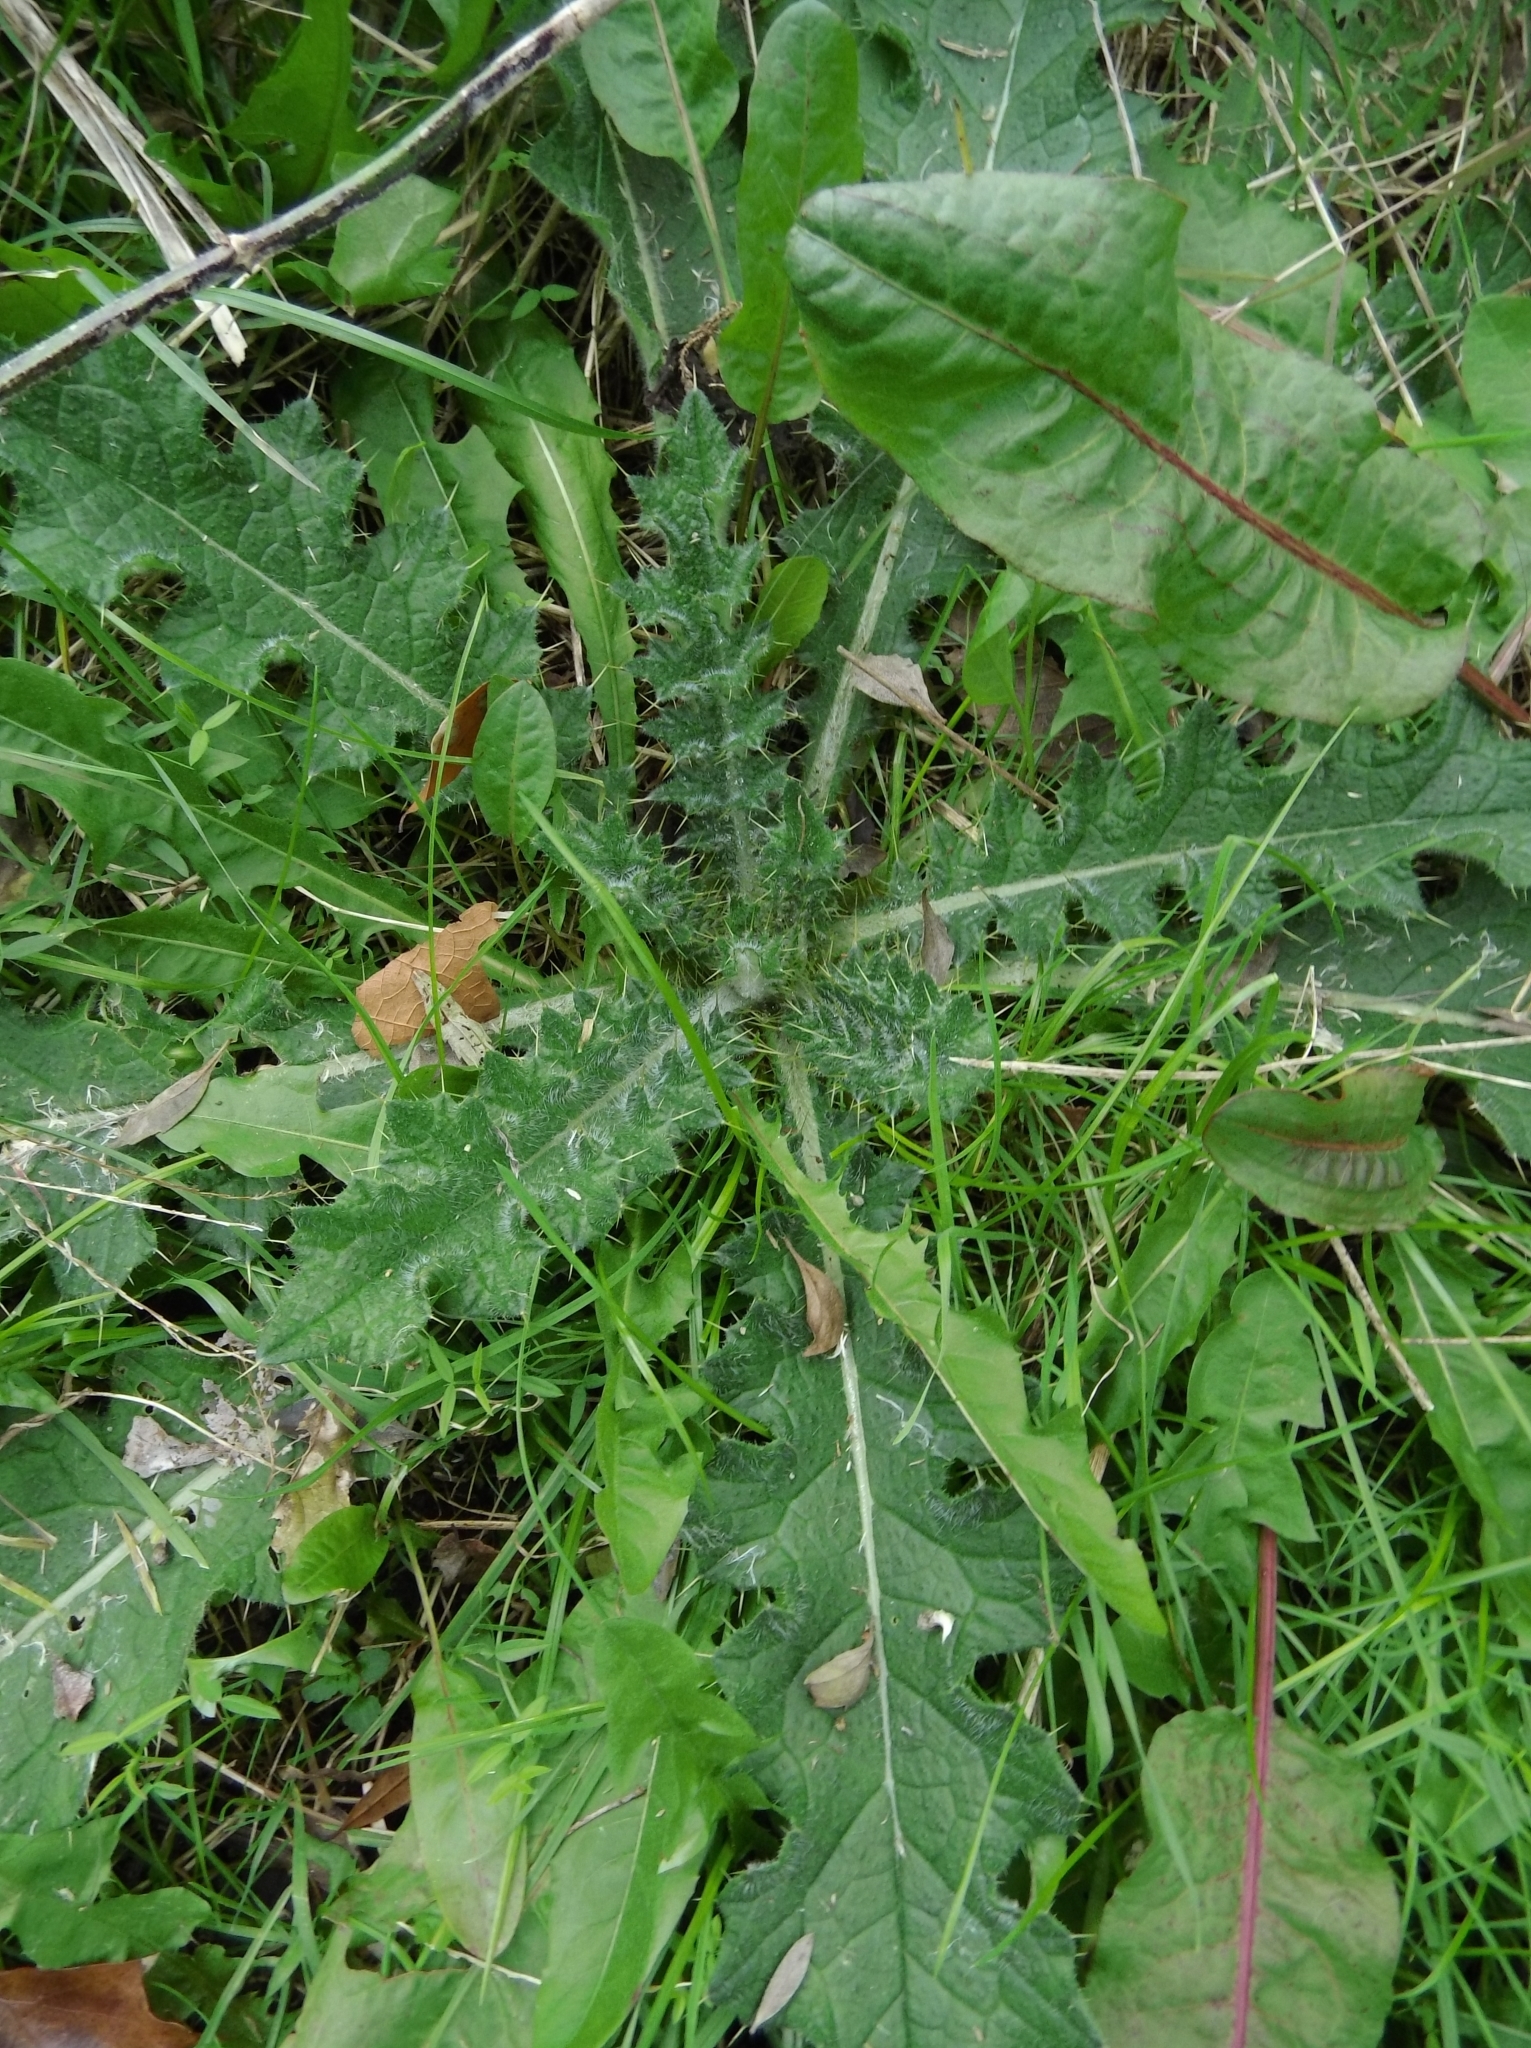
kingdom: Plantae
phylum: Tracheophyta
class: Magnoliopsida
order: Asterales
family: Asteraceae
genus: Cirsium
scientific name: Cirsium vulgare
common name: Bull thistle
